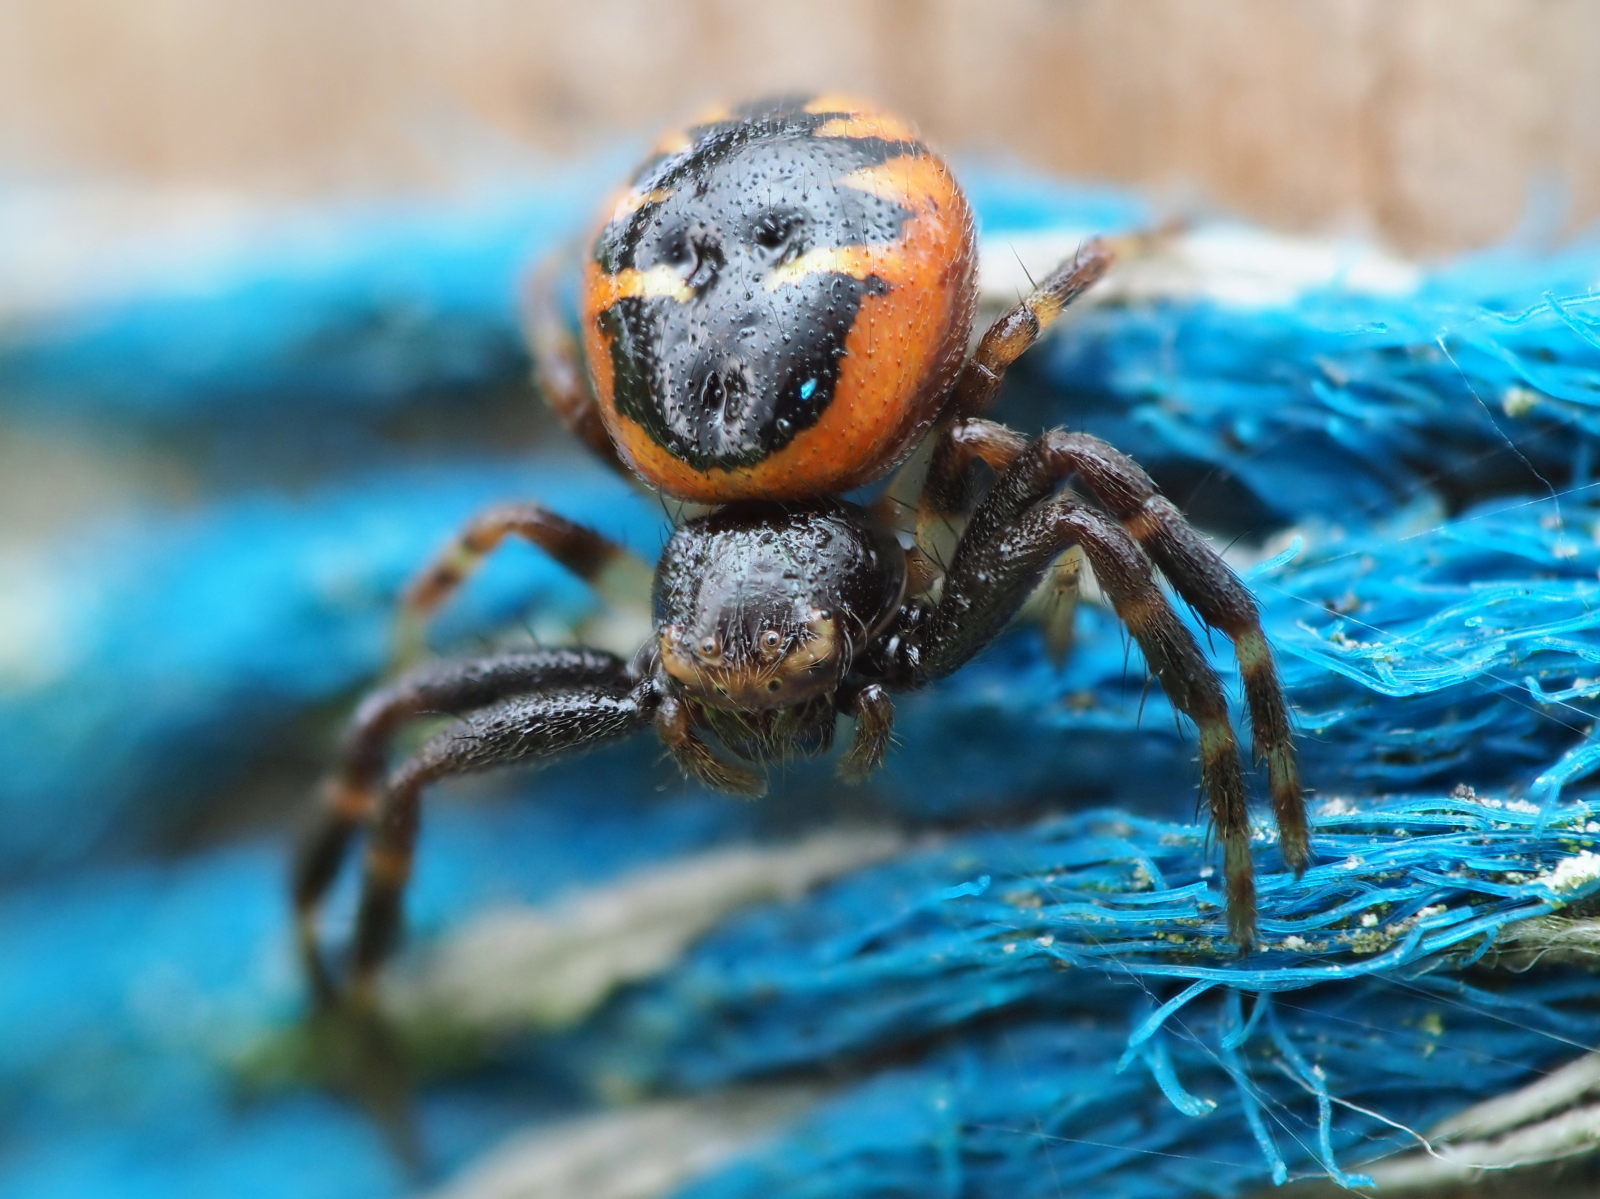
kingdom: Animalia
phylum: Arthropoda
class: Arachnida
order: Araneae
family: Thomisidae
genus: Synema
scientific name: Synema globosum
